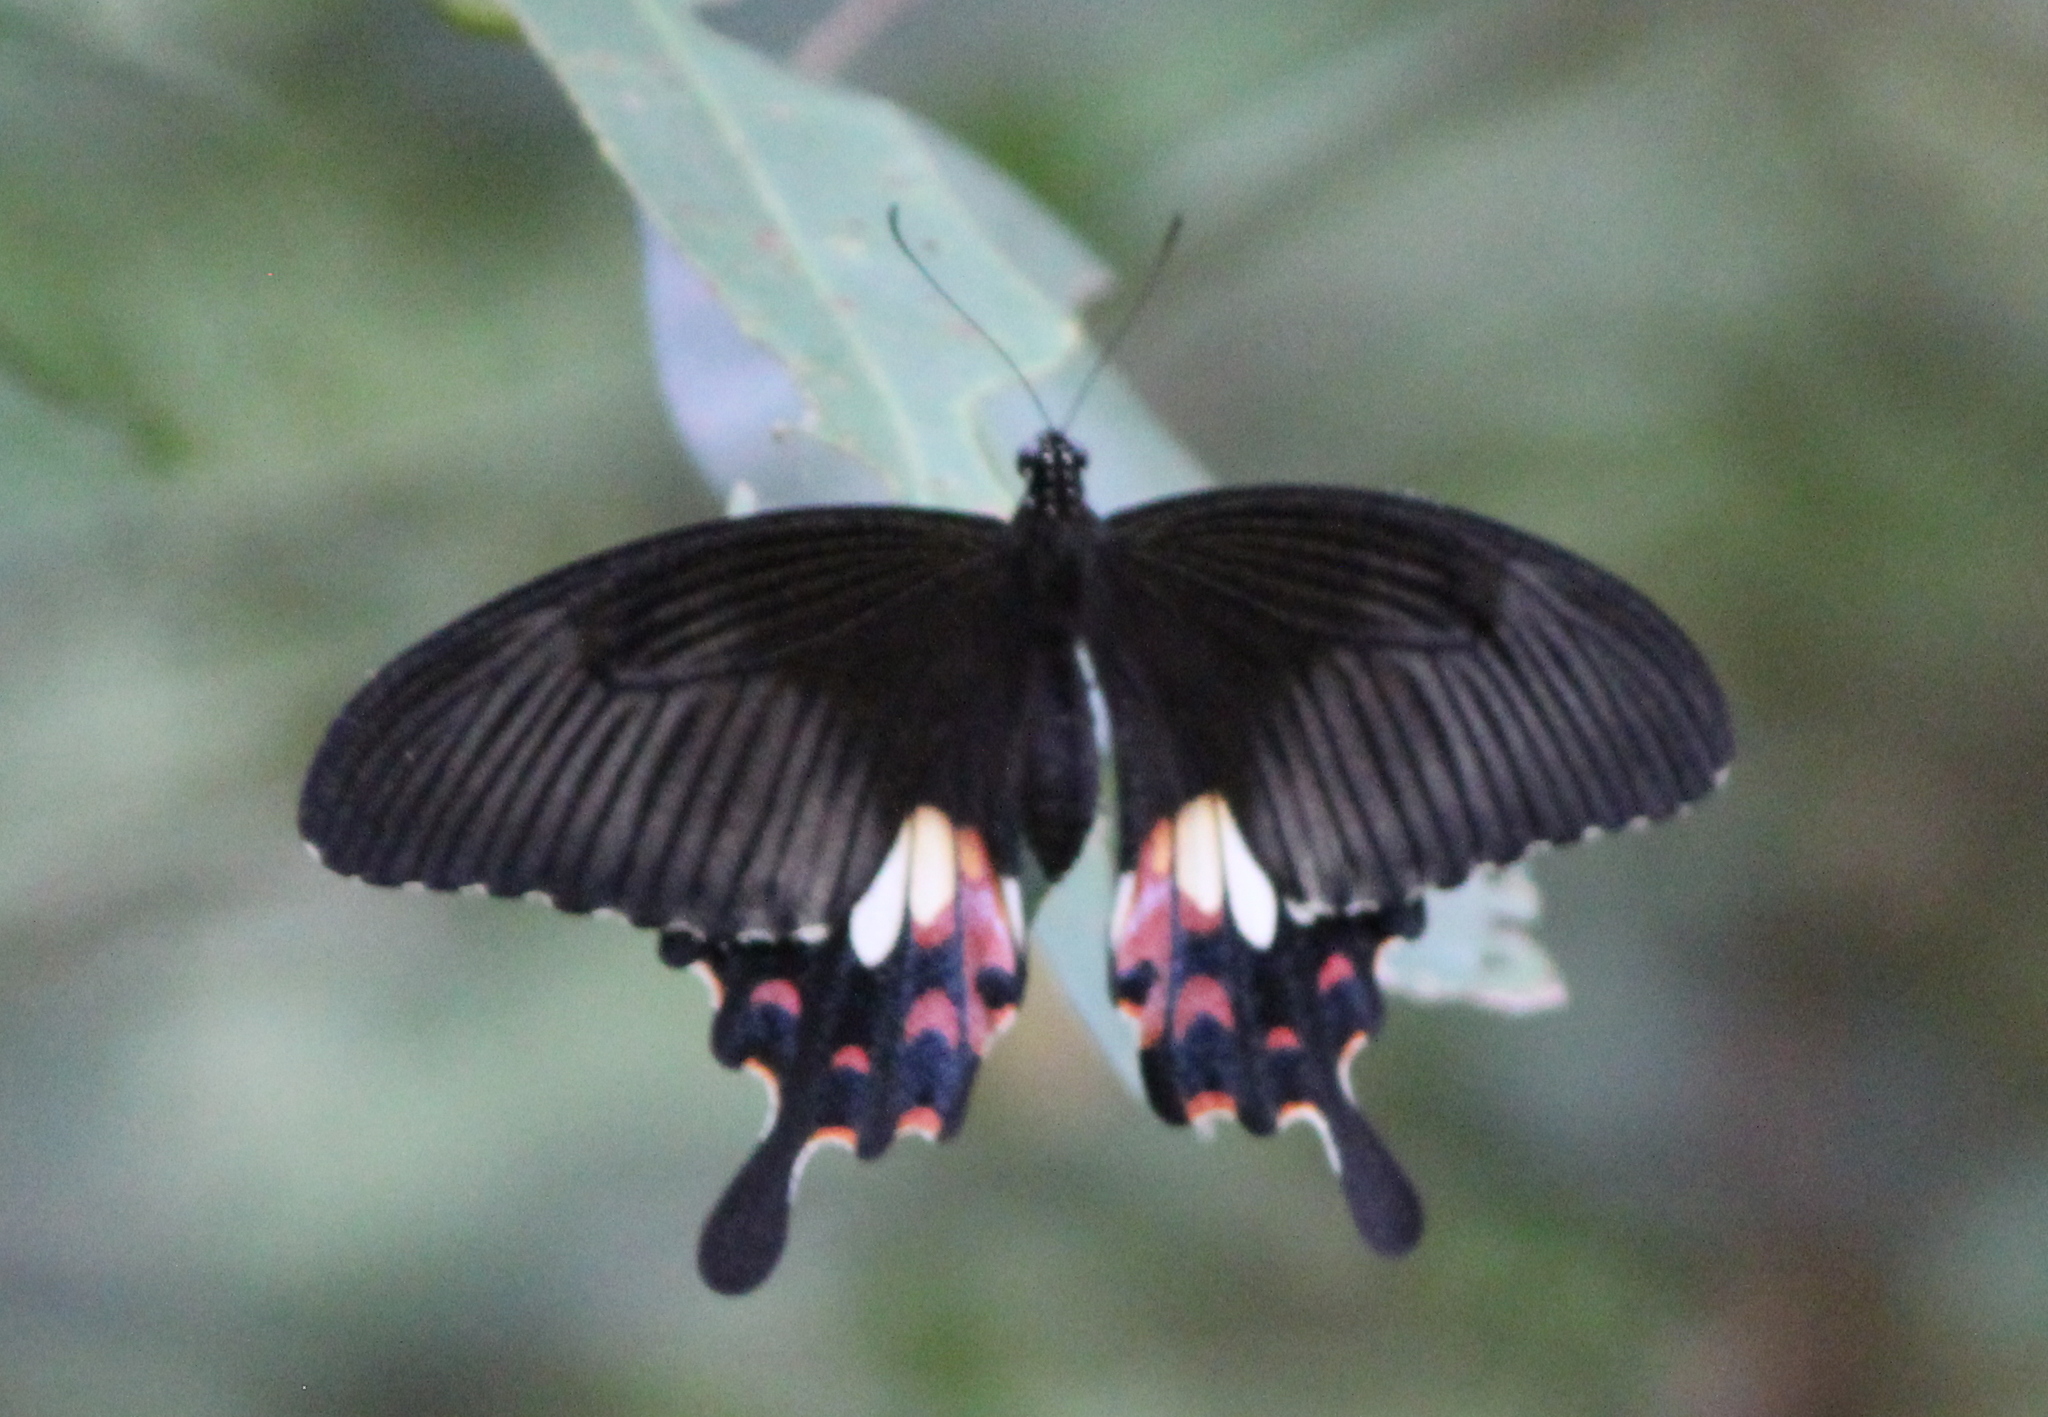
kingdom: Animalia
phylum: Arthropoda
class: Insecta
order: Lepidoptera
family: Papilionidae
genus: Papilio
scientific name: Papilio polytes
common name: Common mormon
